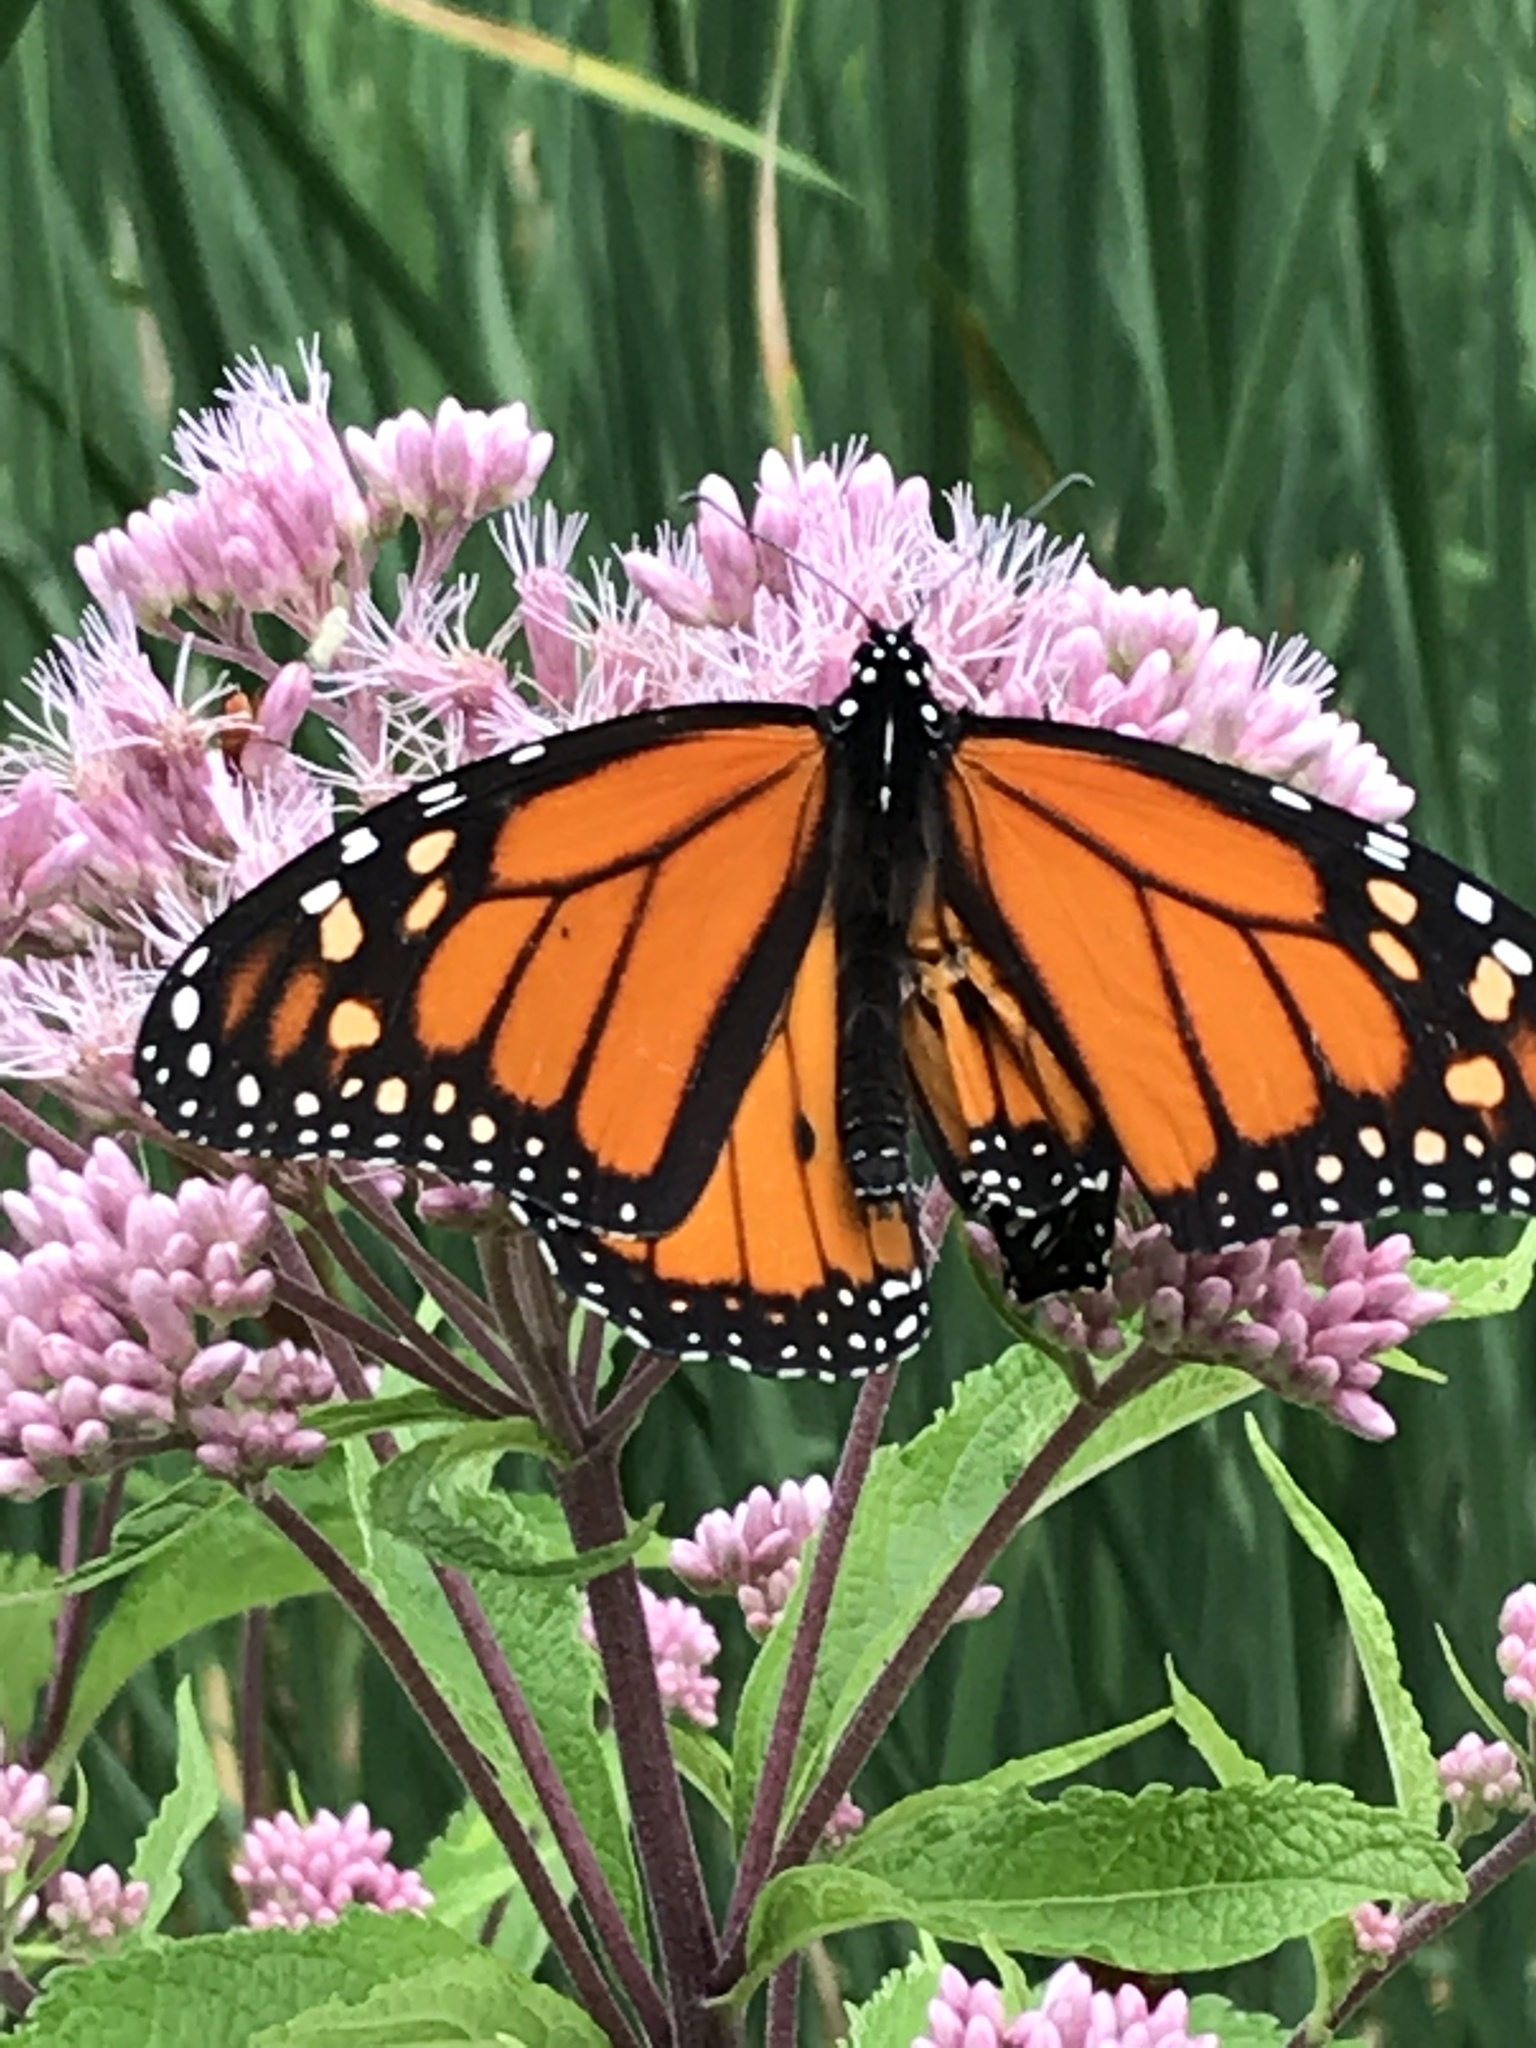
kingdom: Animalia
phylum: Arthropoda
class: Insecta
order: Lepidoptera
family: Nymphalidae
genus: Danaus
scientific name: Danaus plexippus
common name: Monarch
